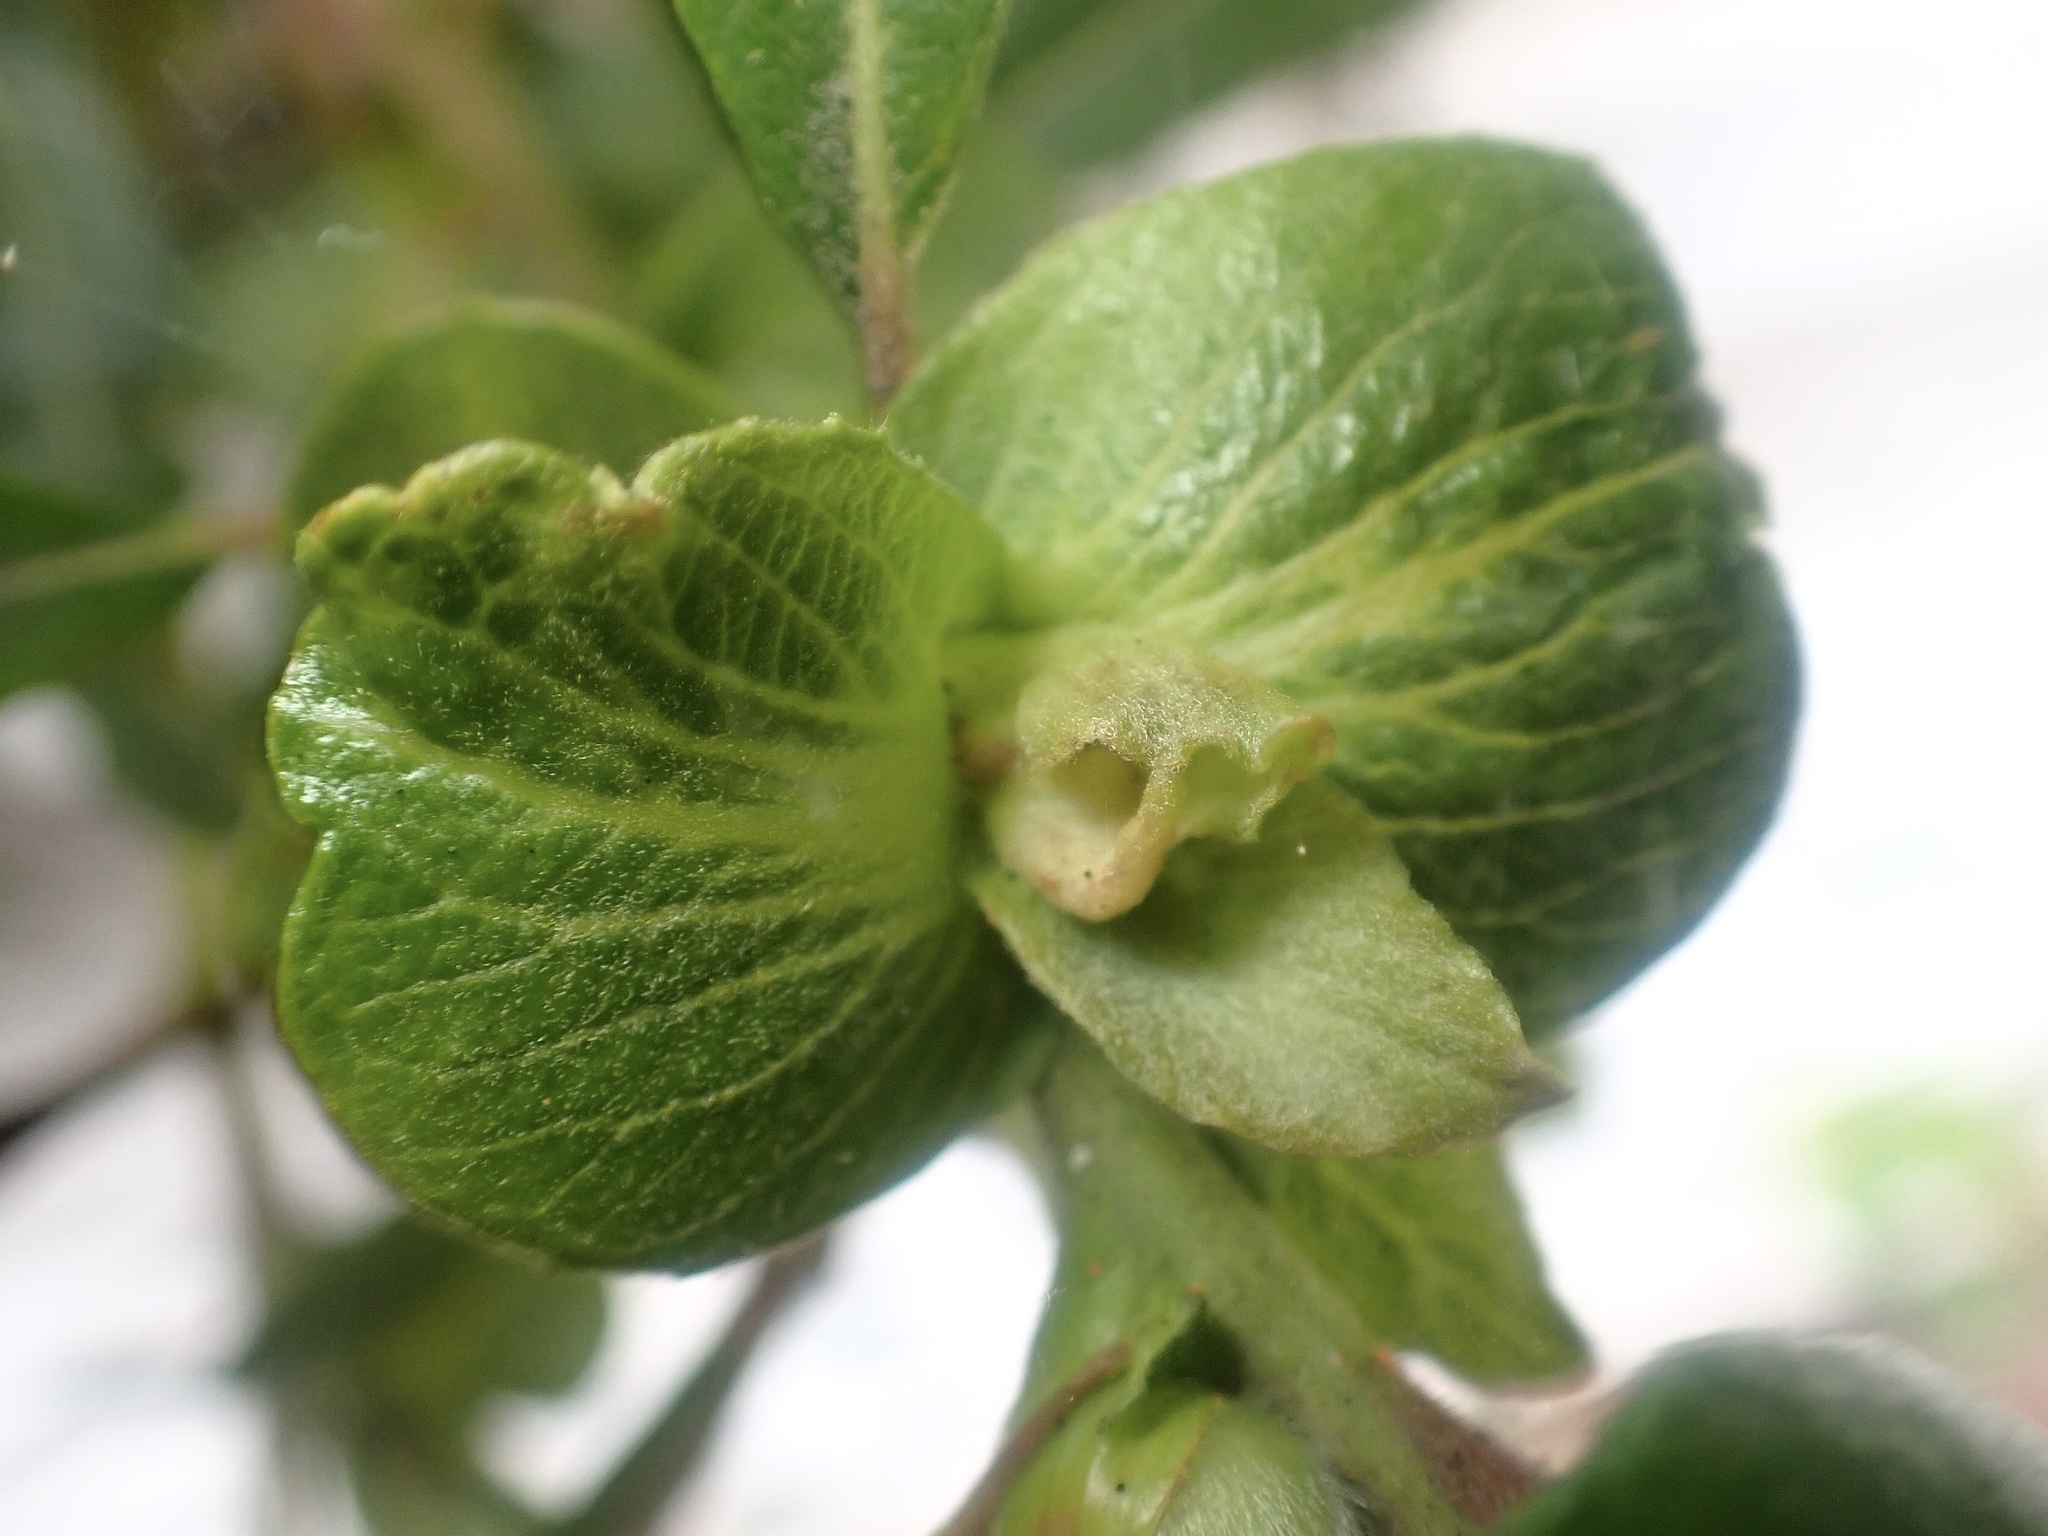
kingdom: Animalia
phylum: Arthropoda
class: Insecta
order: Diptera
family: Cecidomyiidae
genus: Rabdophaga
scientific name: Rabdophaga salicisbrassicoides
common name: Willow cabbagegall midge
